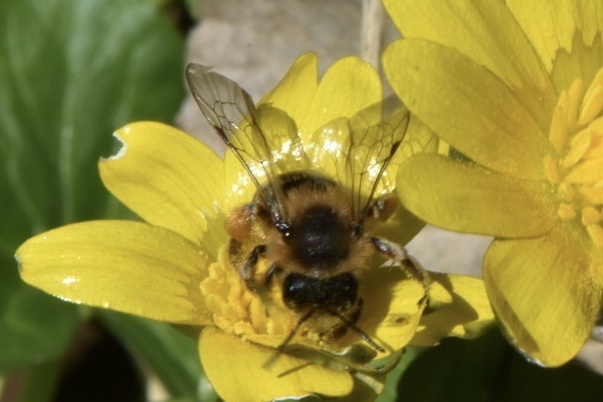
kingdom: Animalia
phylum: Arthropoda
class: Insecta
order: Hymenoptera
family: Andrenidae
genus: Andrena
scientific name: Andrena flavipes
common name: Yellow-legged mining bee
